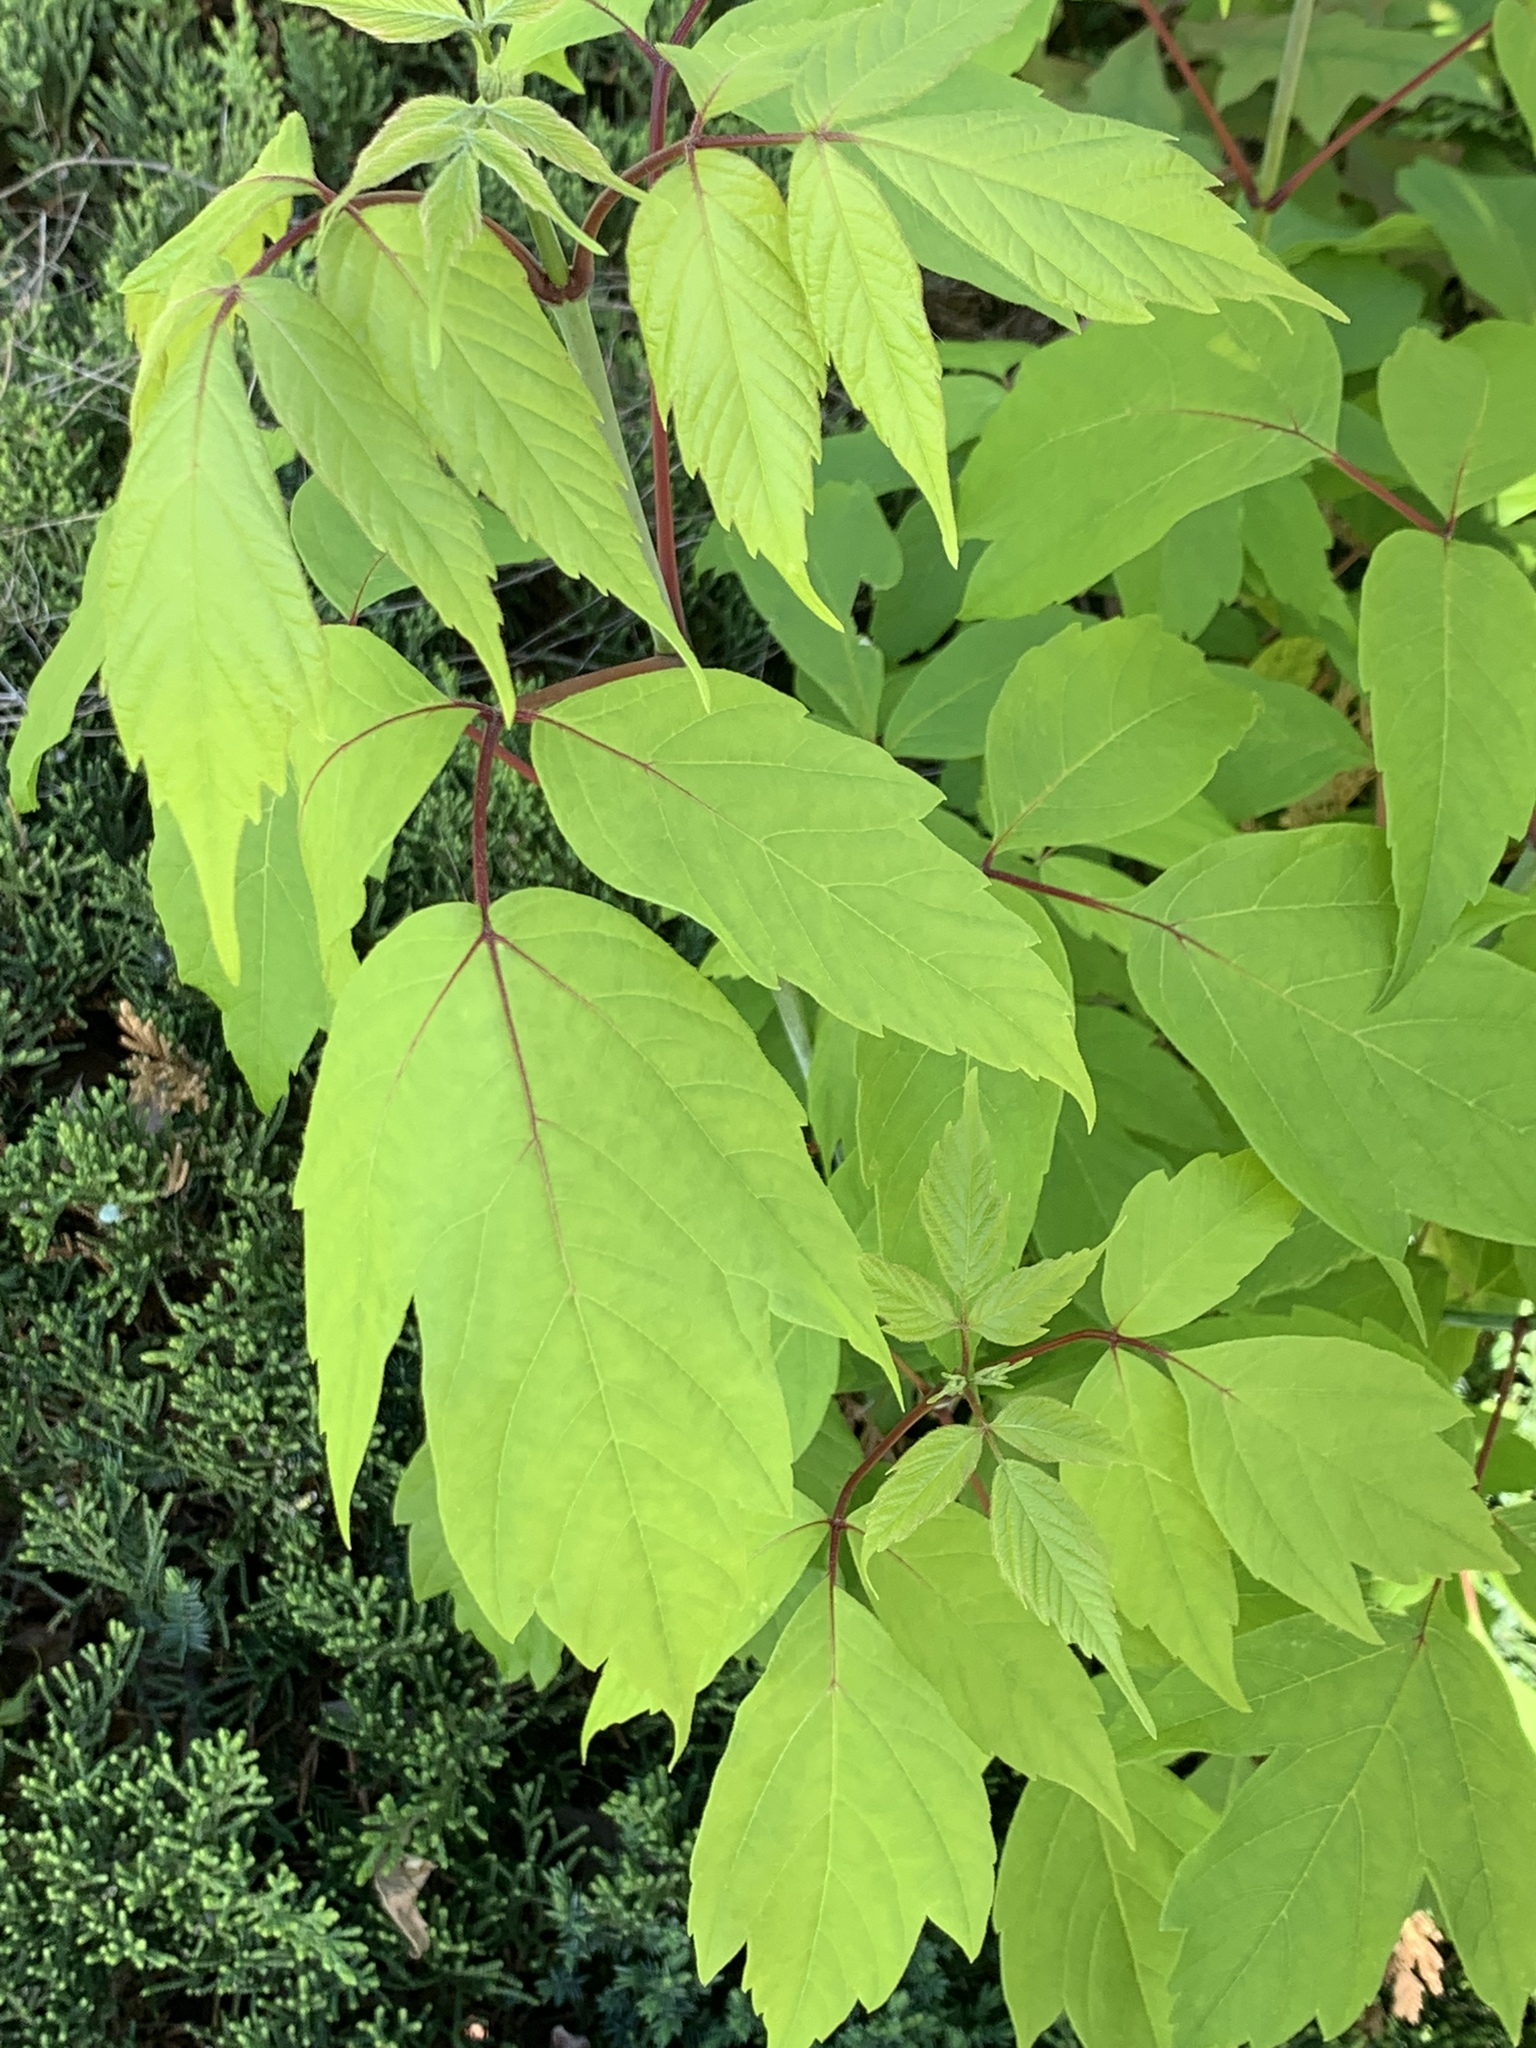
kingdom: Plantae
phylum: Tracheophyta
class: Magnoliopsida
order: Sapindales
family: Sapindaceae
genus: Acer
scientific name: Acer negundo
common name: Ashleaf maple
